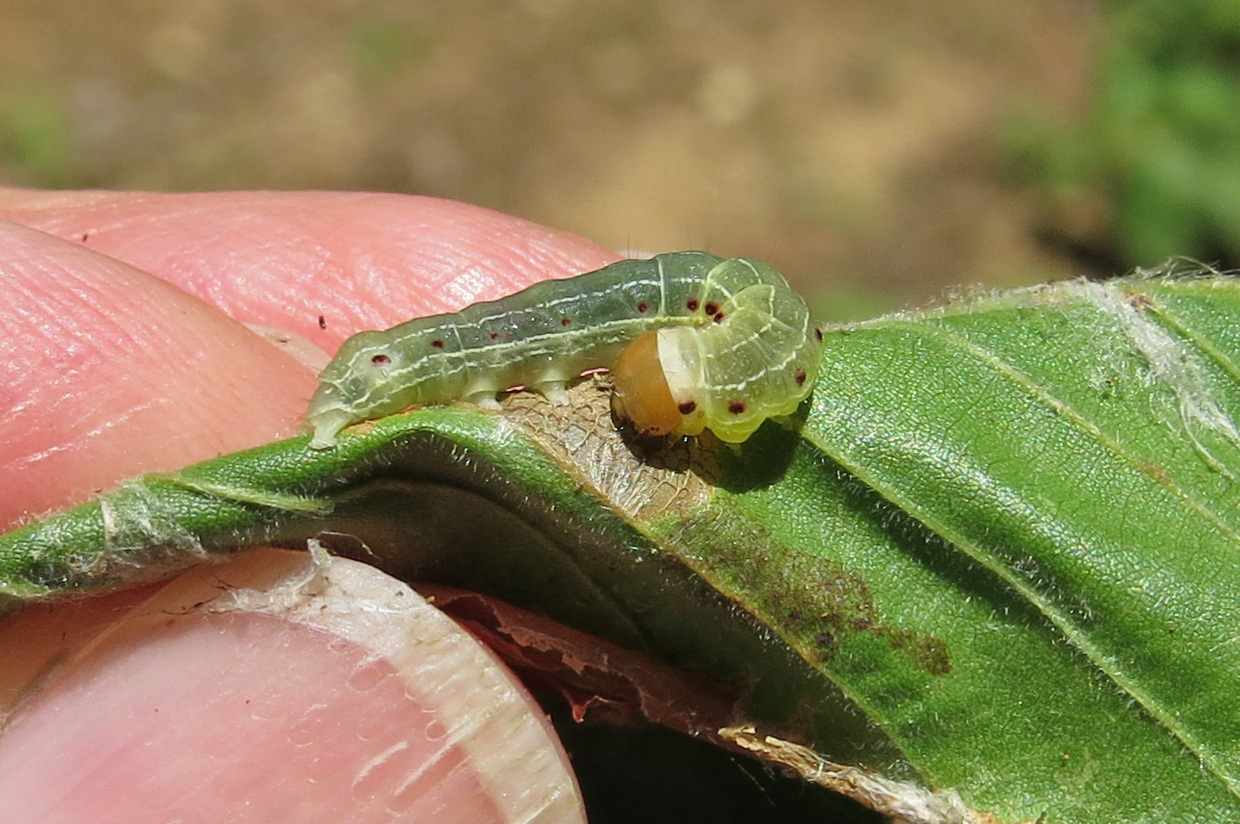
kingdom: Animalia
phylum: Arthropoda
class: Insecta
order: Lepidoptera
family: Noctuidae
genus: Achatia
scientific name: Achatia confusa
